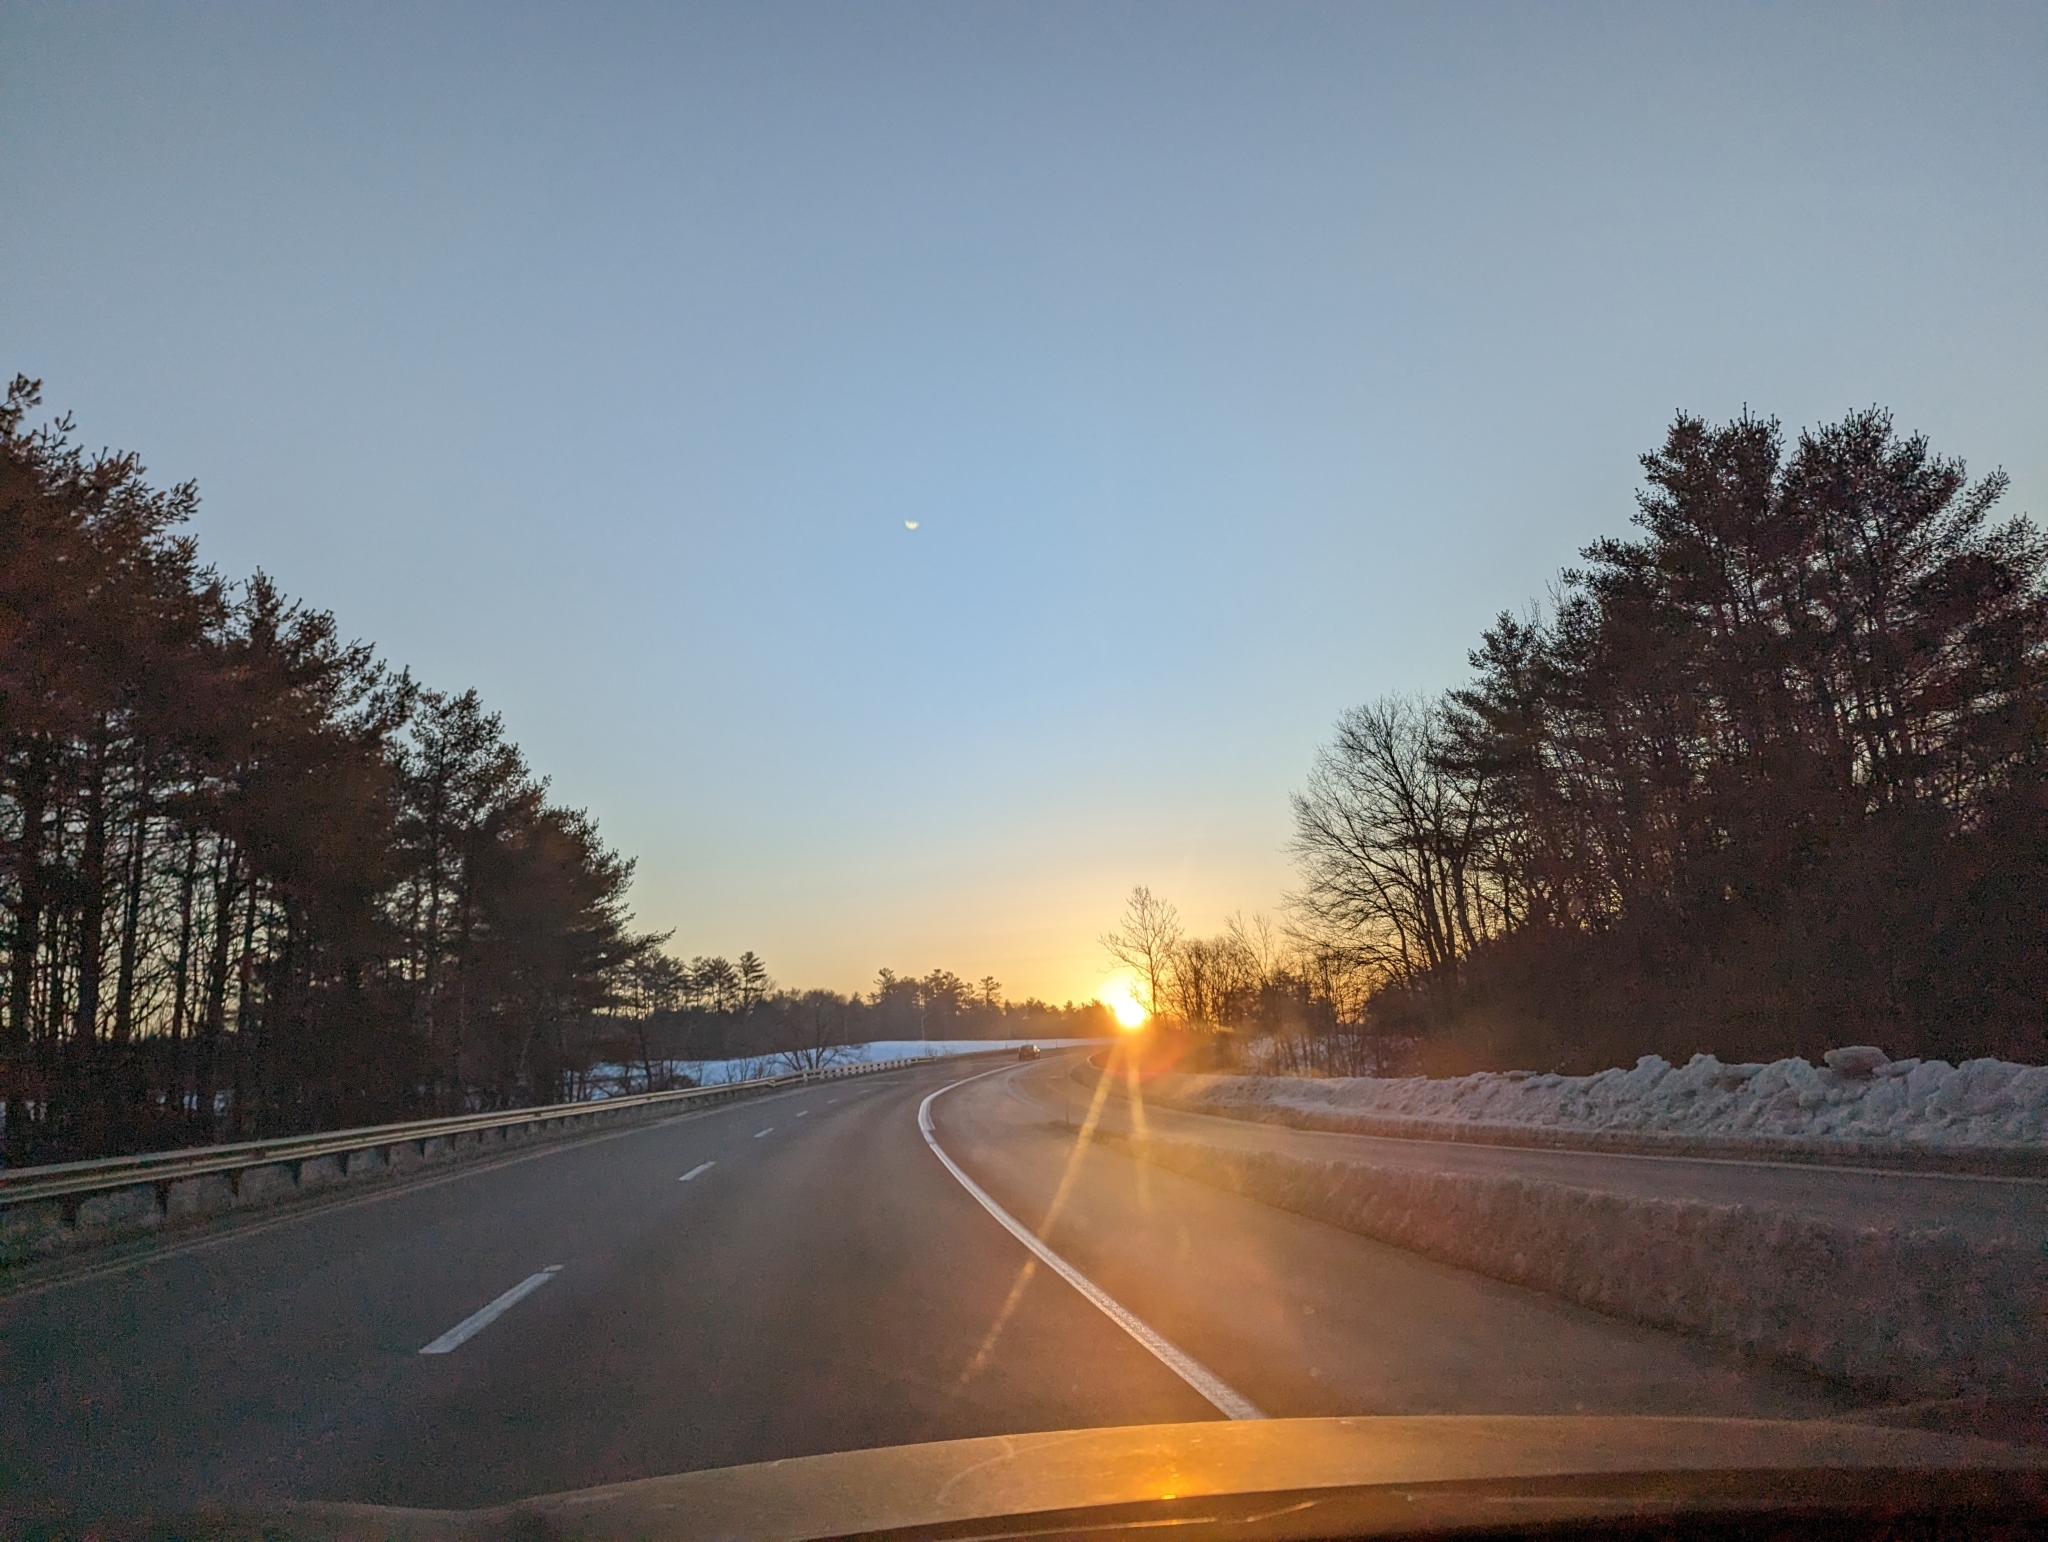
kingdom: Plantae
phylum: Tracheophyta
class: Pinopsida
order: Pinales
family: Pinaceae
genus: Pinus
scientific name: Pinus strobus
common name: Weymouth pine
